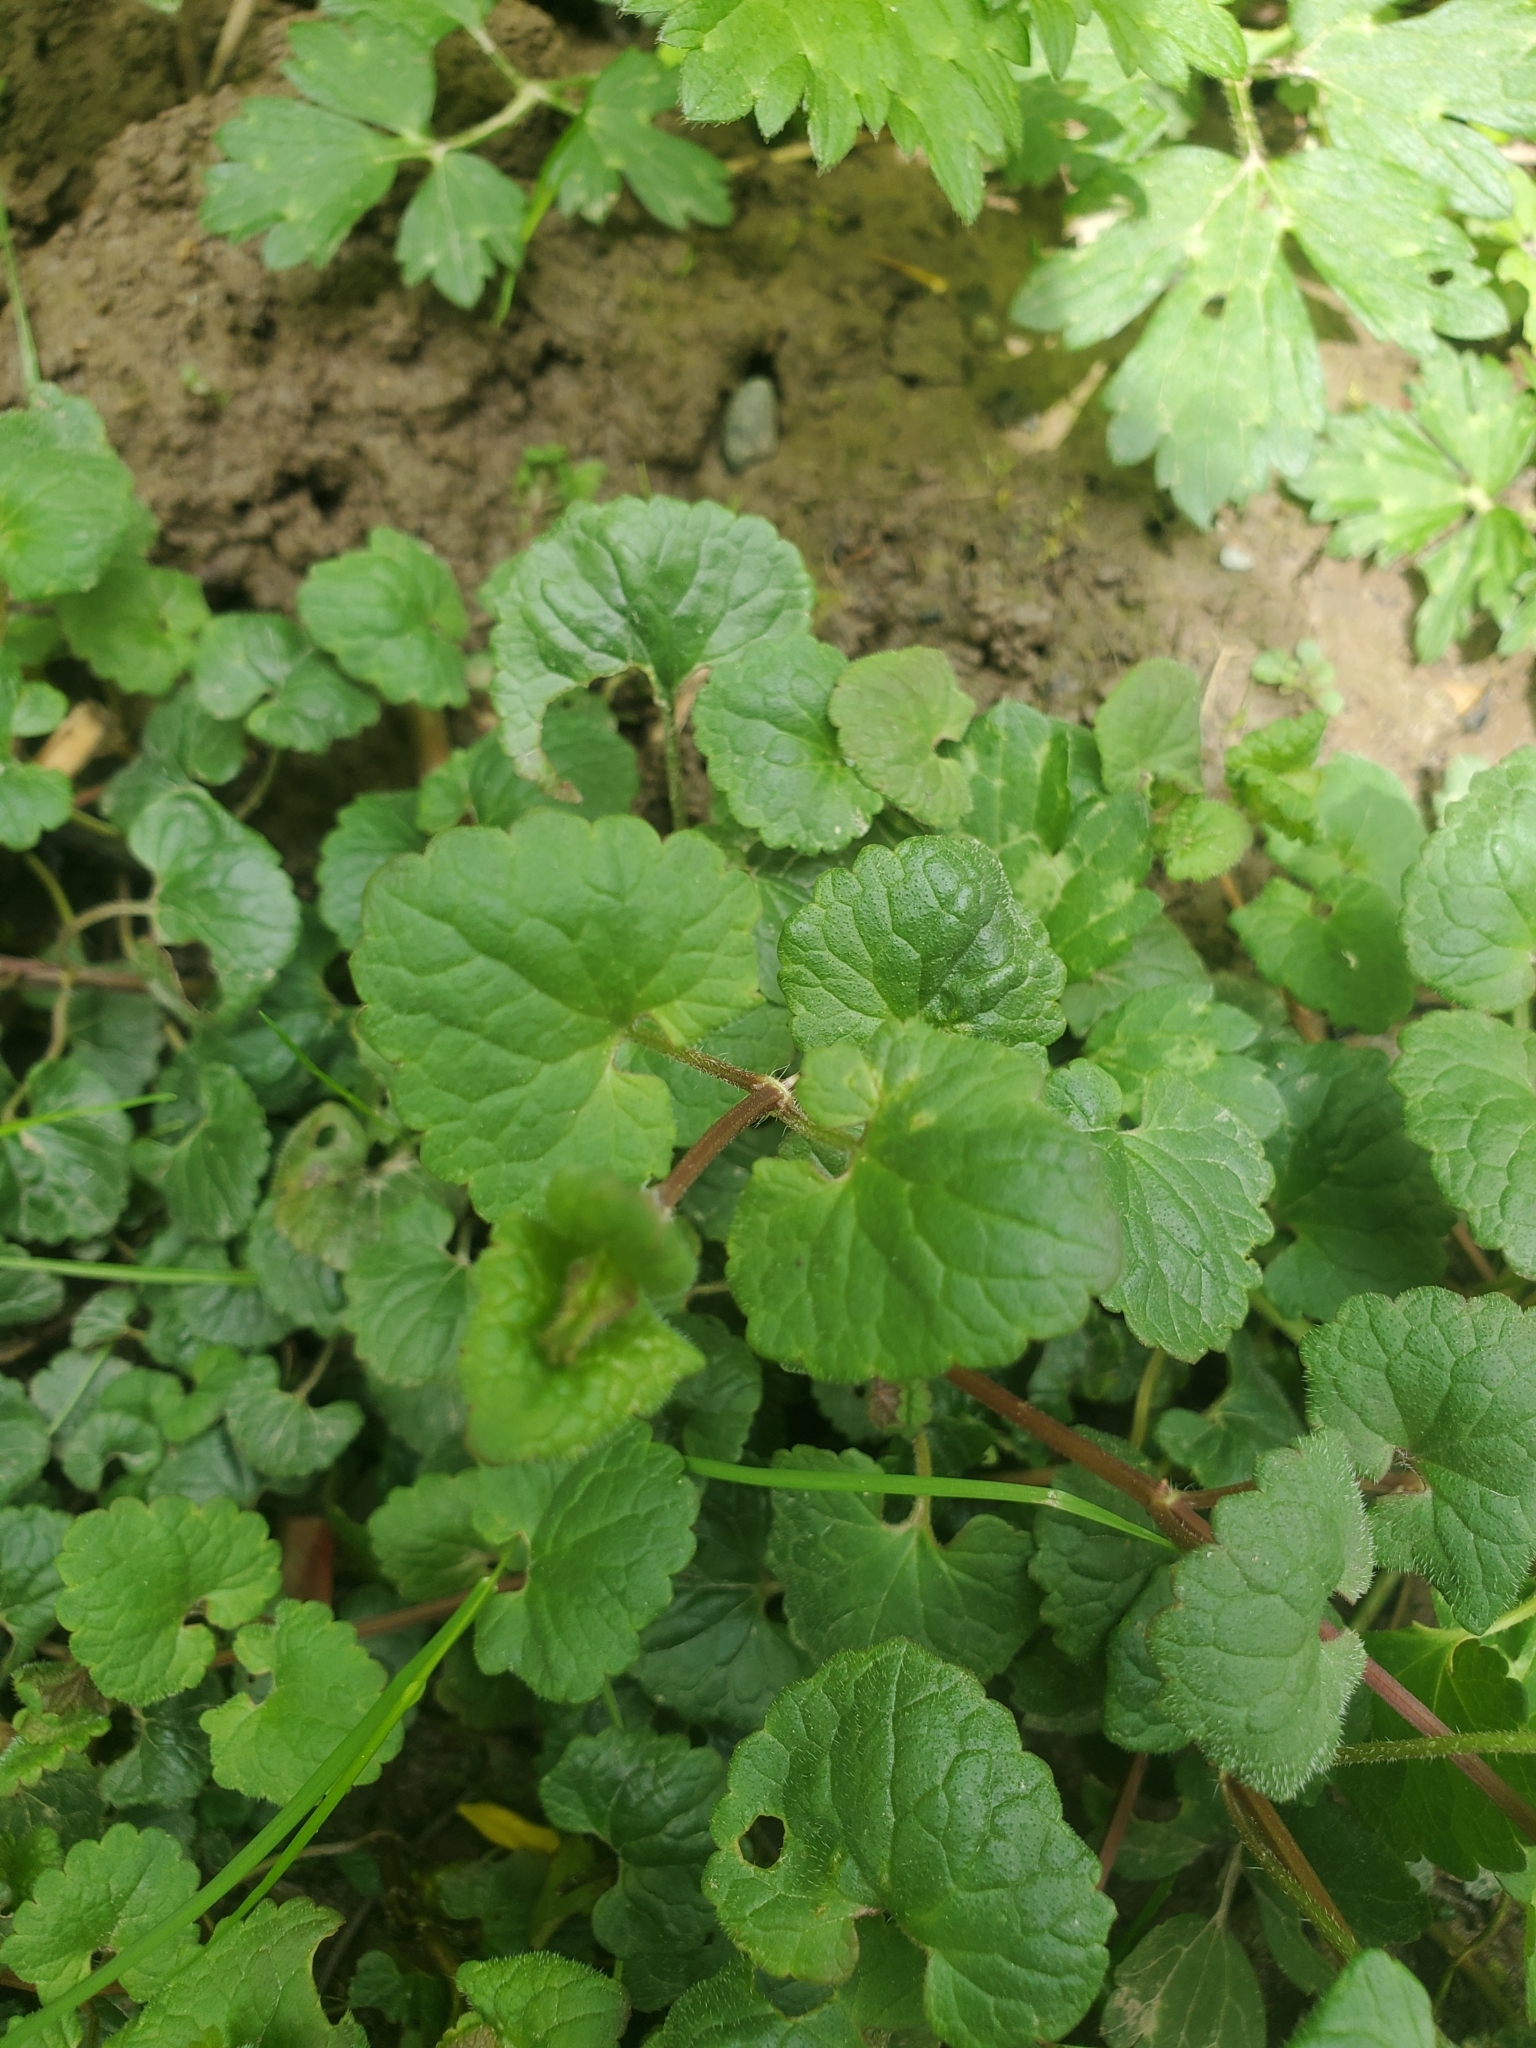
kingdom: Plantae
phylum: Tracheophyta
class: Magnoliopsida
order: Lamiales
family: Lamiaceae
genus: Glechoma
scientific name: Glechoma hederacea
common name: Ground ivy
